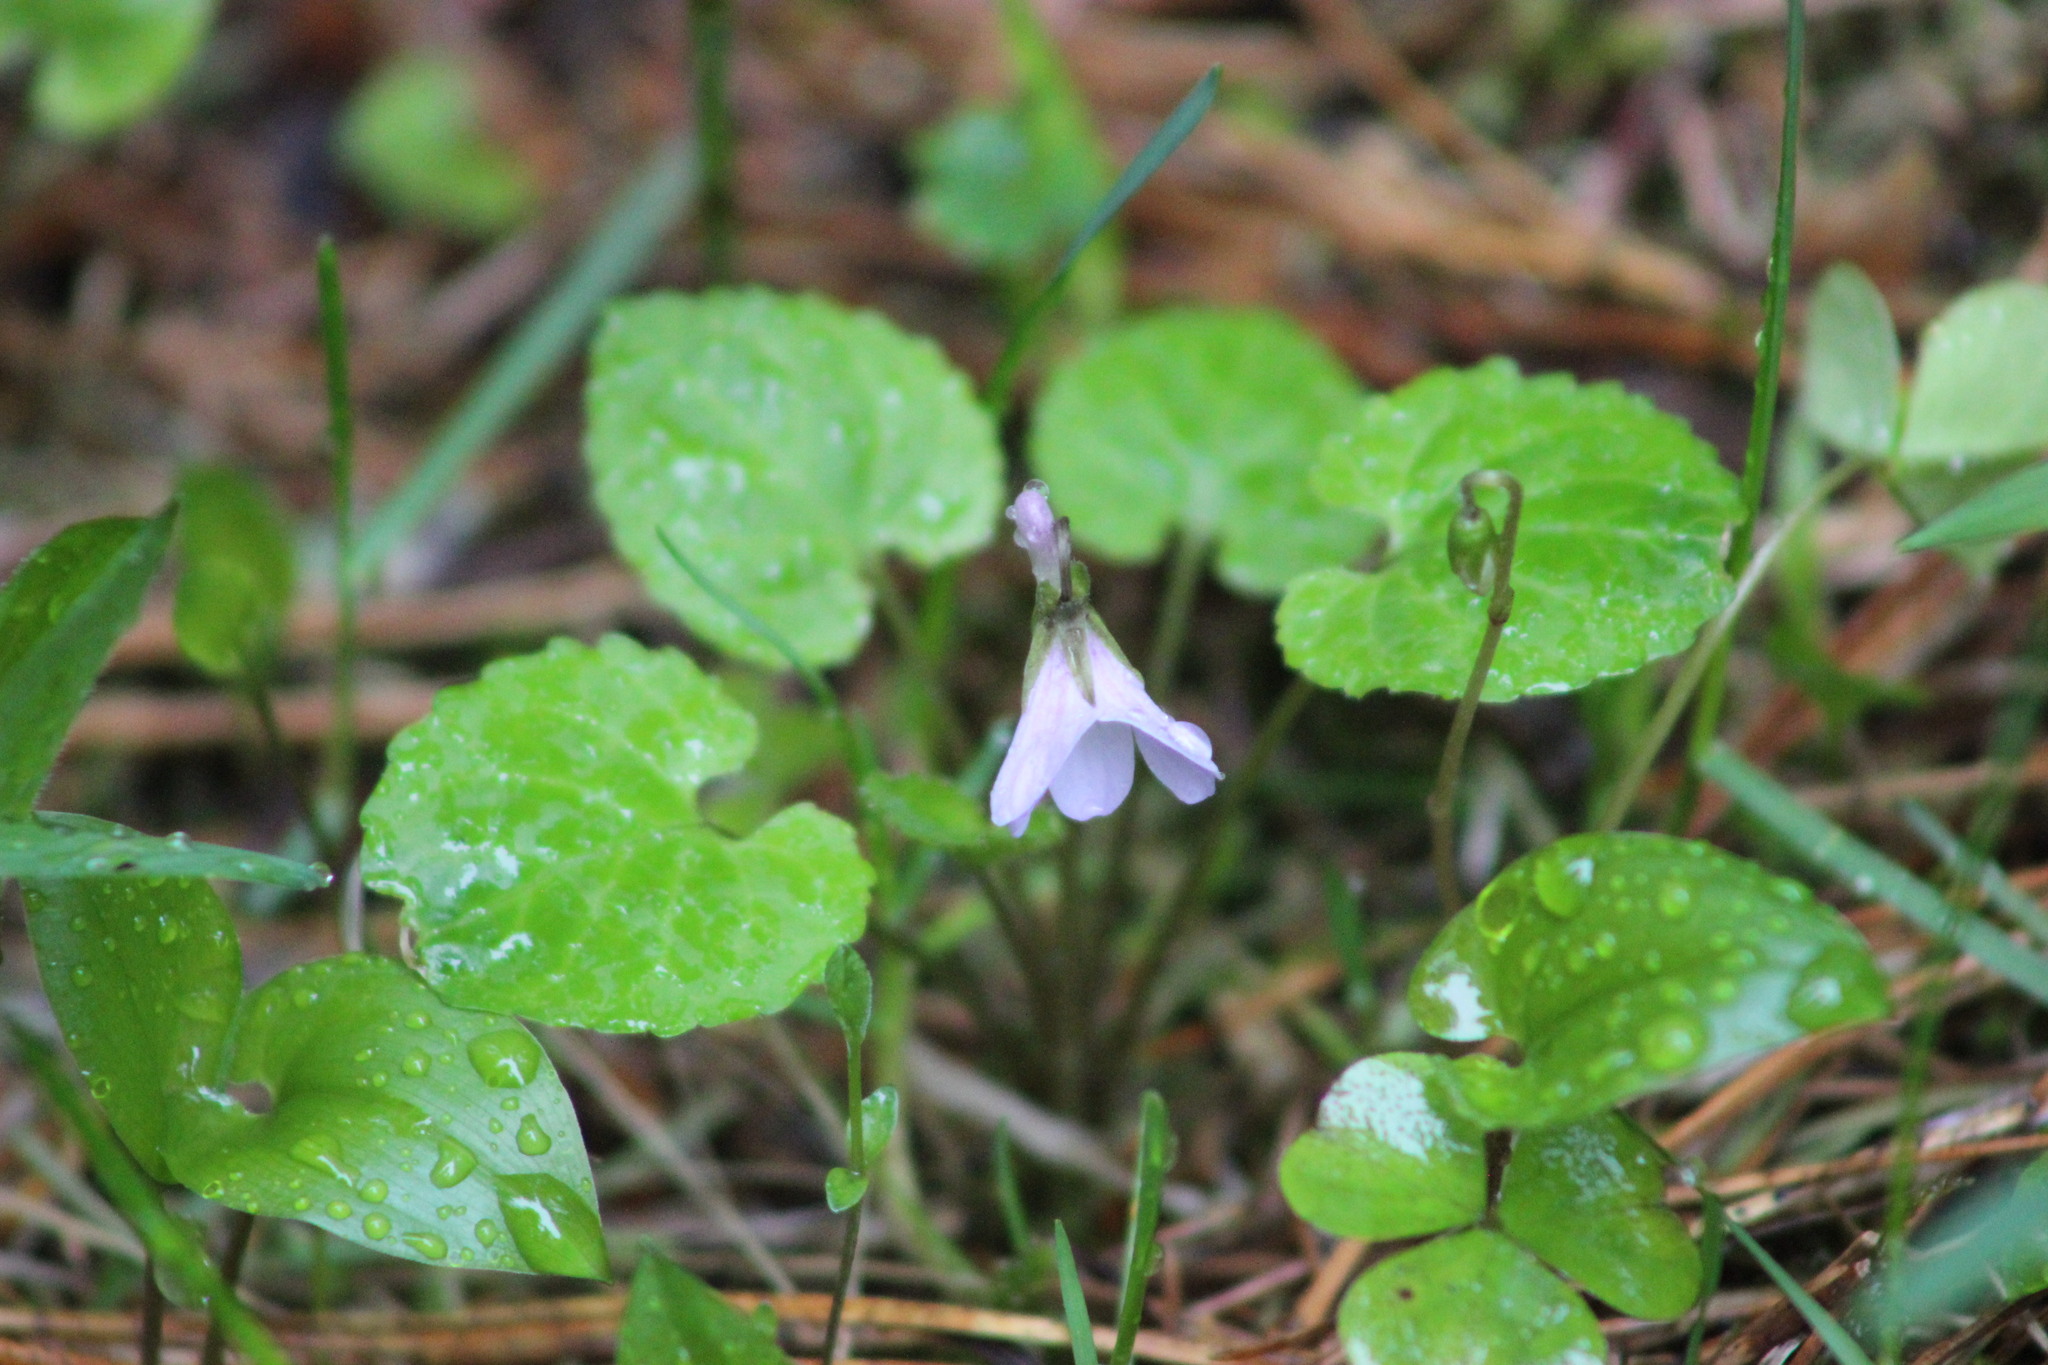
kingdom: Plantae
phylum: Tracheophyta
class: Magnoliopsida
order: Malpighiales
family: Violaceae
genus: Viola
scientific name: Viola selkirkii
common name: Selkirk's violet
